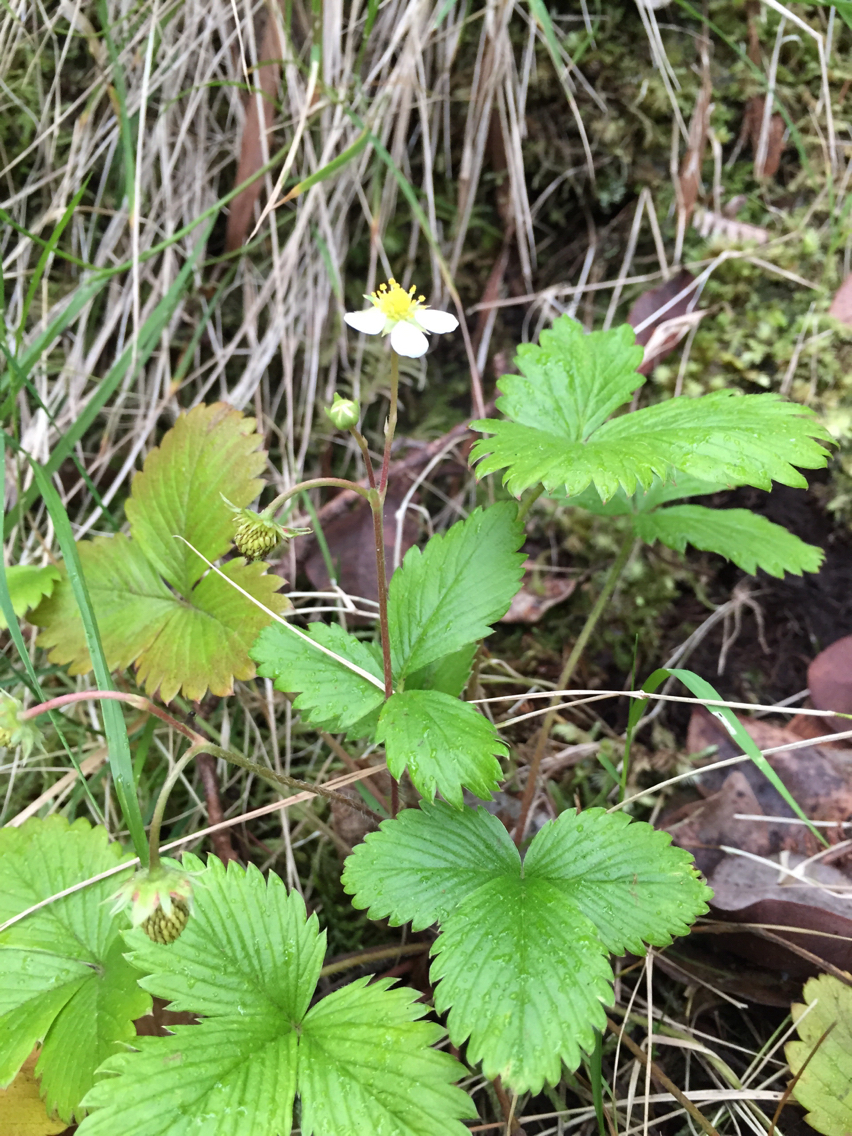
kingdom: Plantae
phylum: Tracheophyta
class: Magnoliopsida
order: Rosales
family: Rosaceae
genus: Fragaria
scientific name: Fragaria vesca
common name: Wild strawberry
